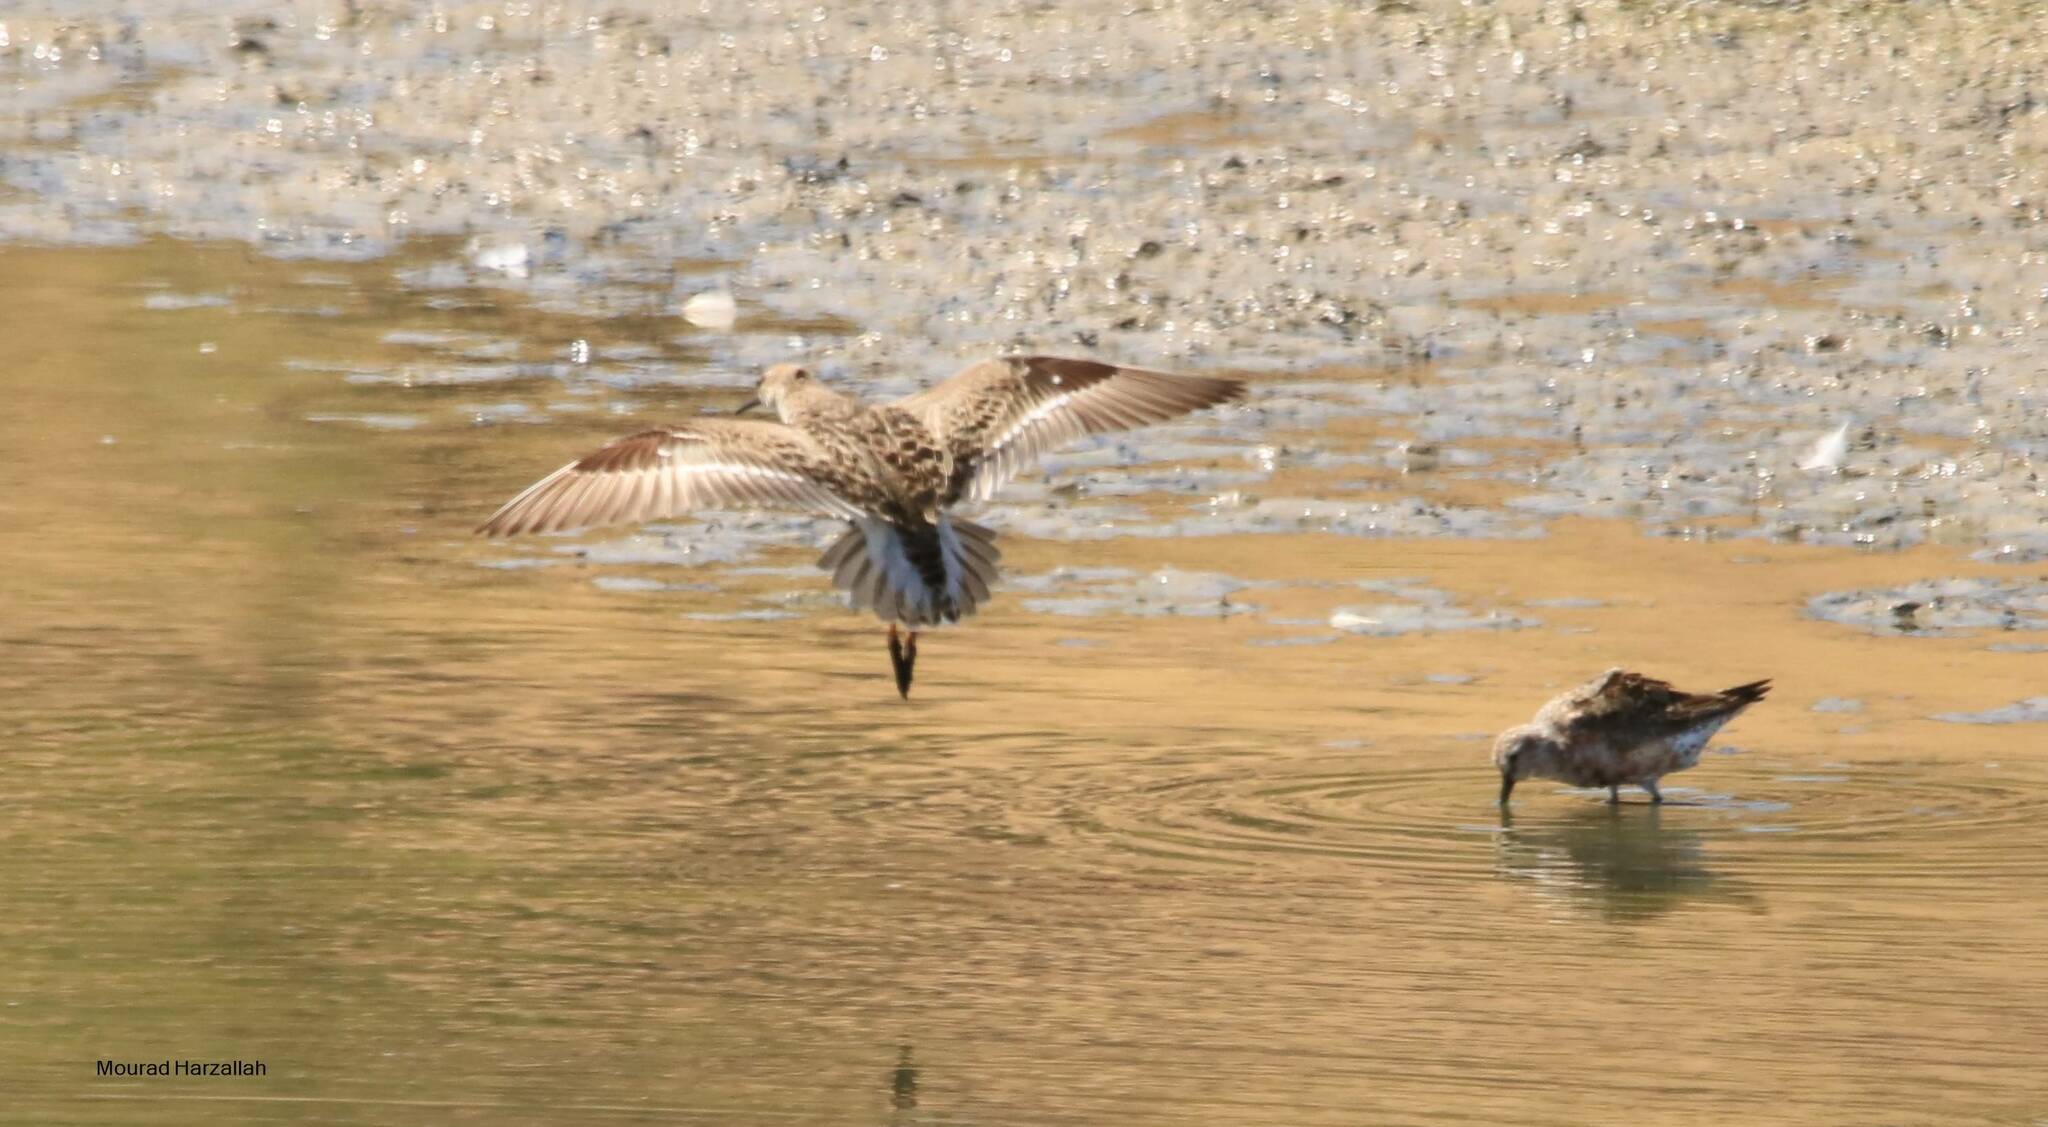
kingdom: Animalia
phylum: Chordata
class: Aves
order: Charadriiformes
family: Scolopacidae
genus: Calidris
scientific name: Calidris ferruginea
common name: Curlew sandpiper
